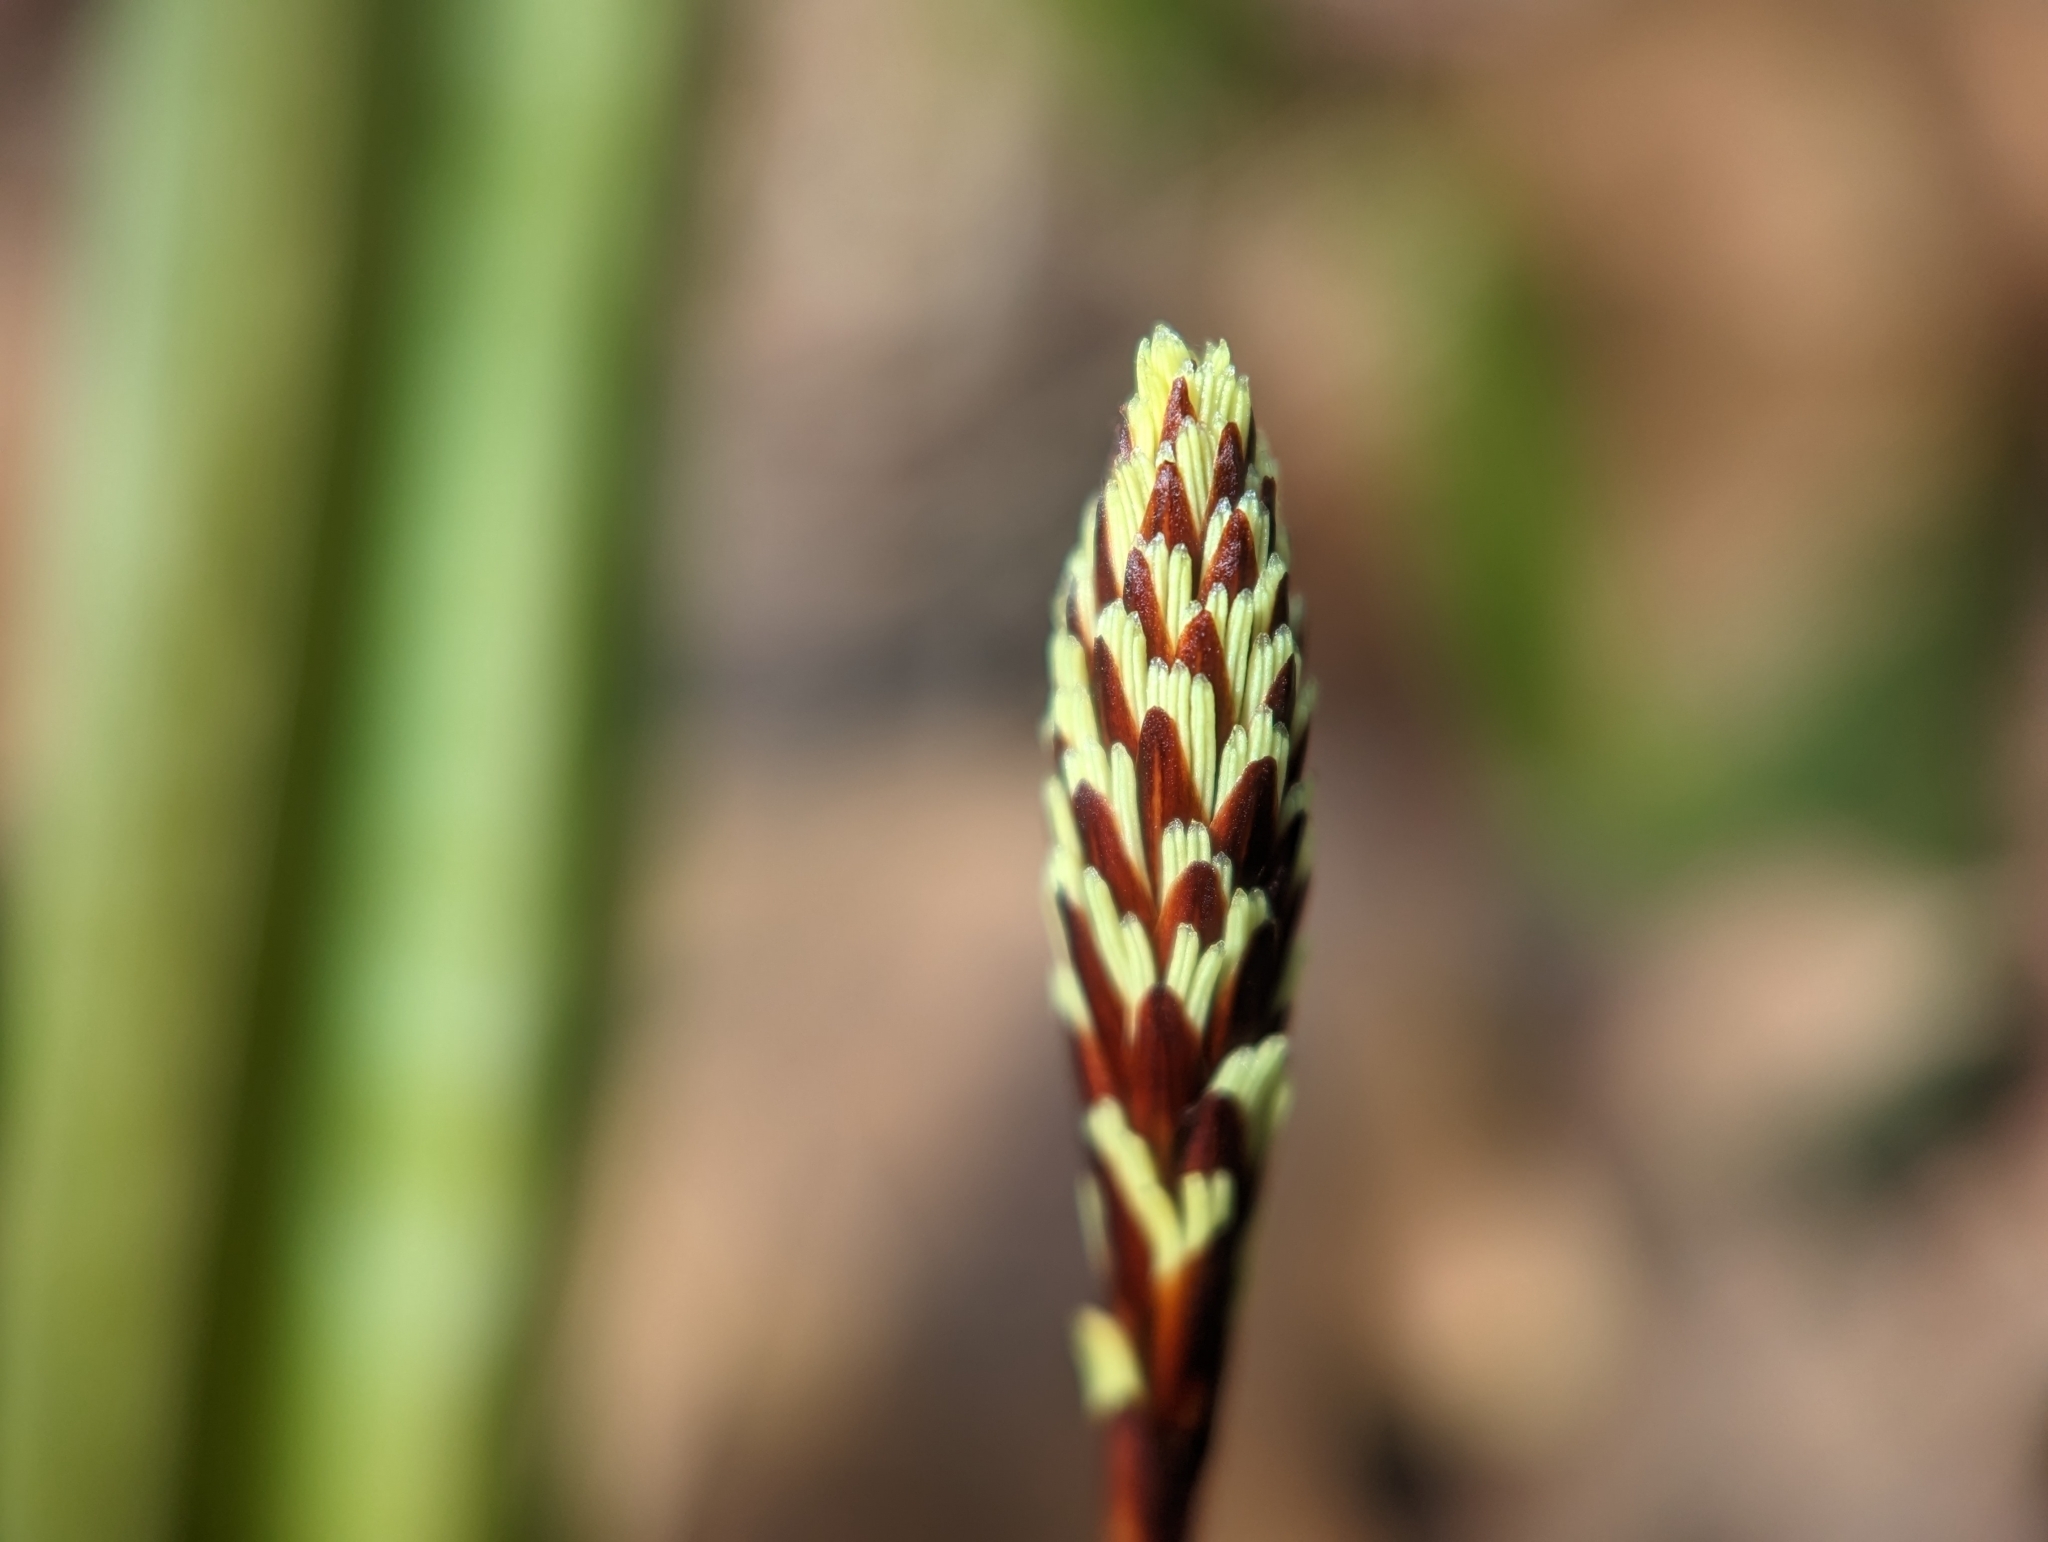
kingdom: Plantae
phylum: Tracheophyta
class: Liliopsida
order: Poales
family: Cyperaceae
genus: Carex
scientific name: Carex plantaginea
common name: Plantain-leaved sedge
